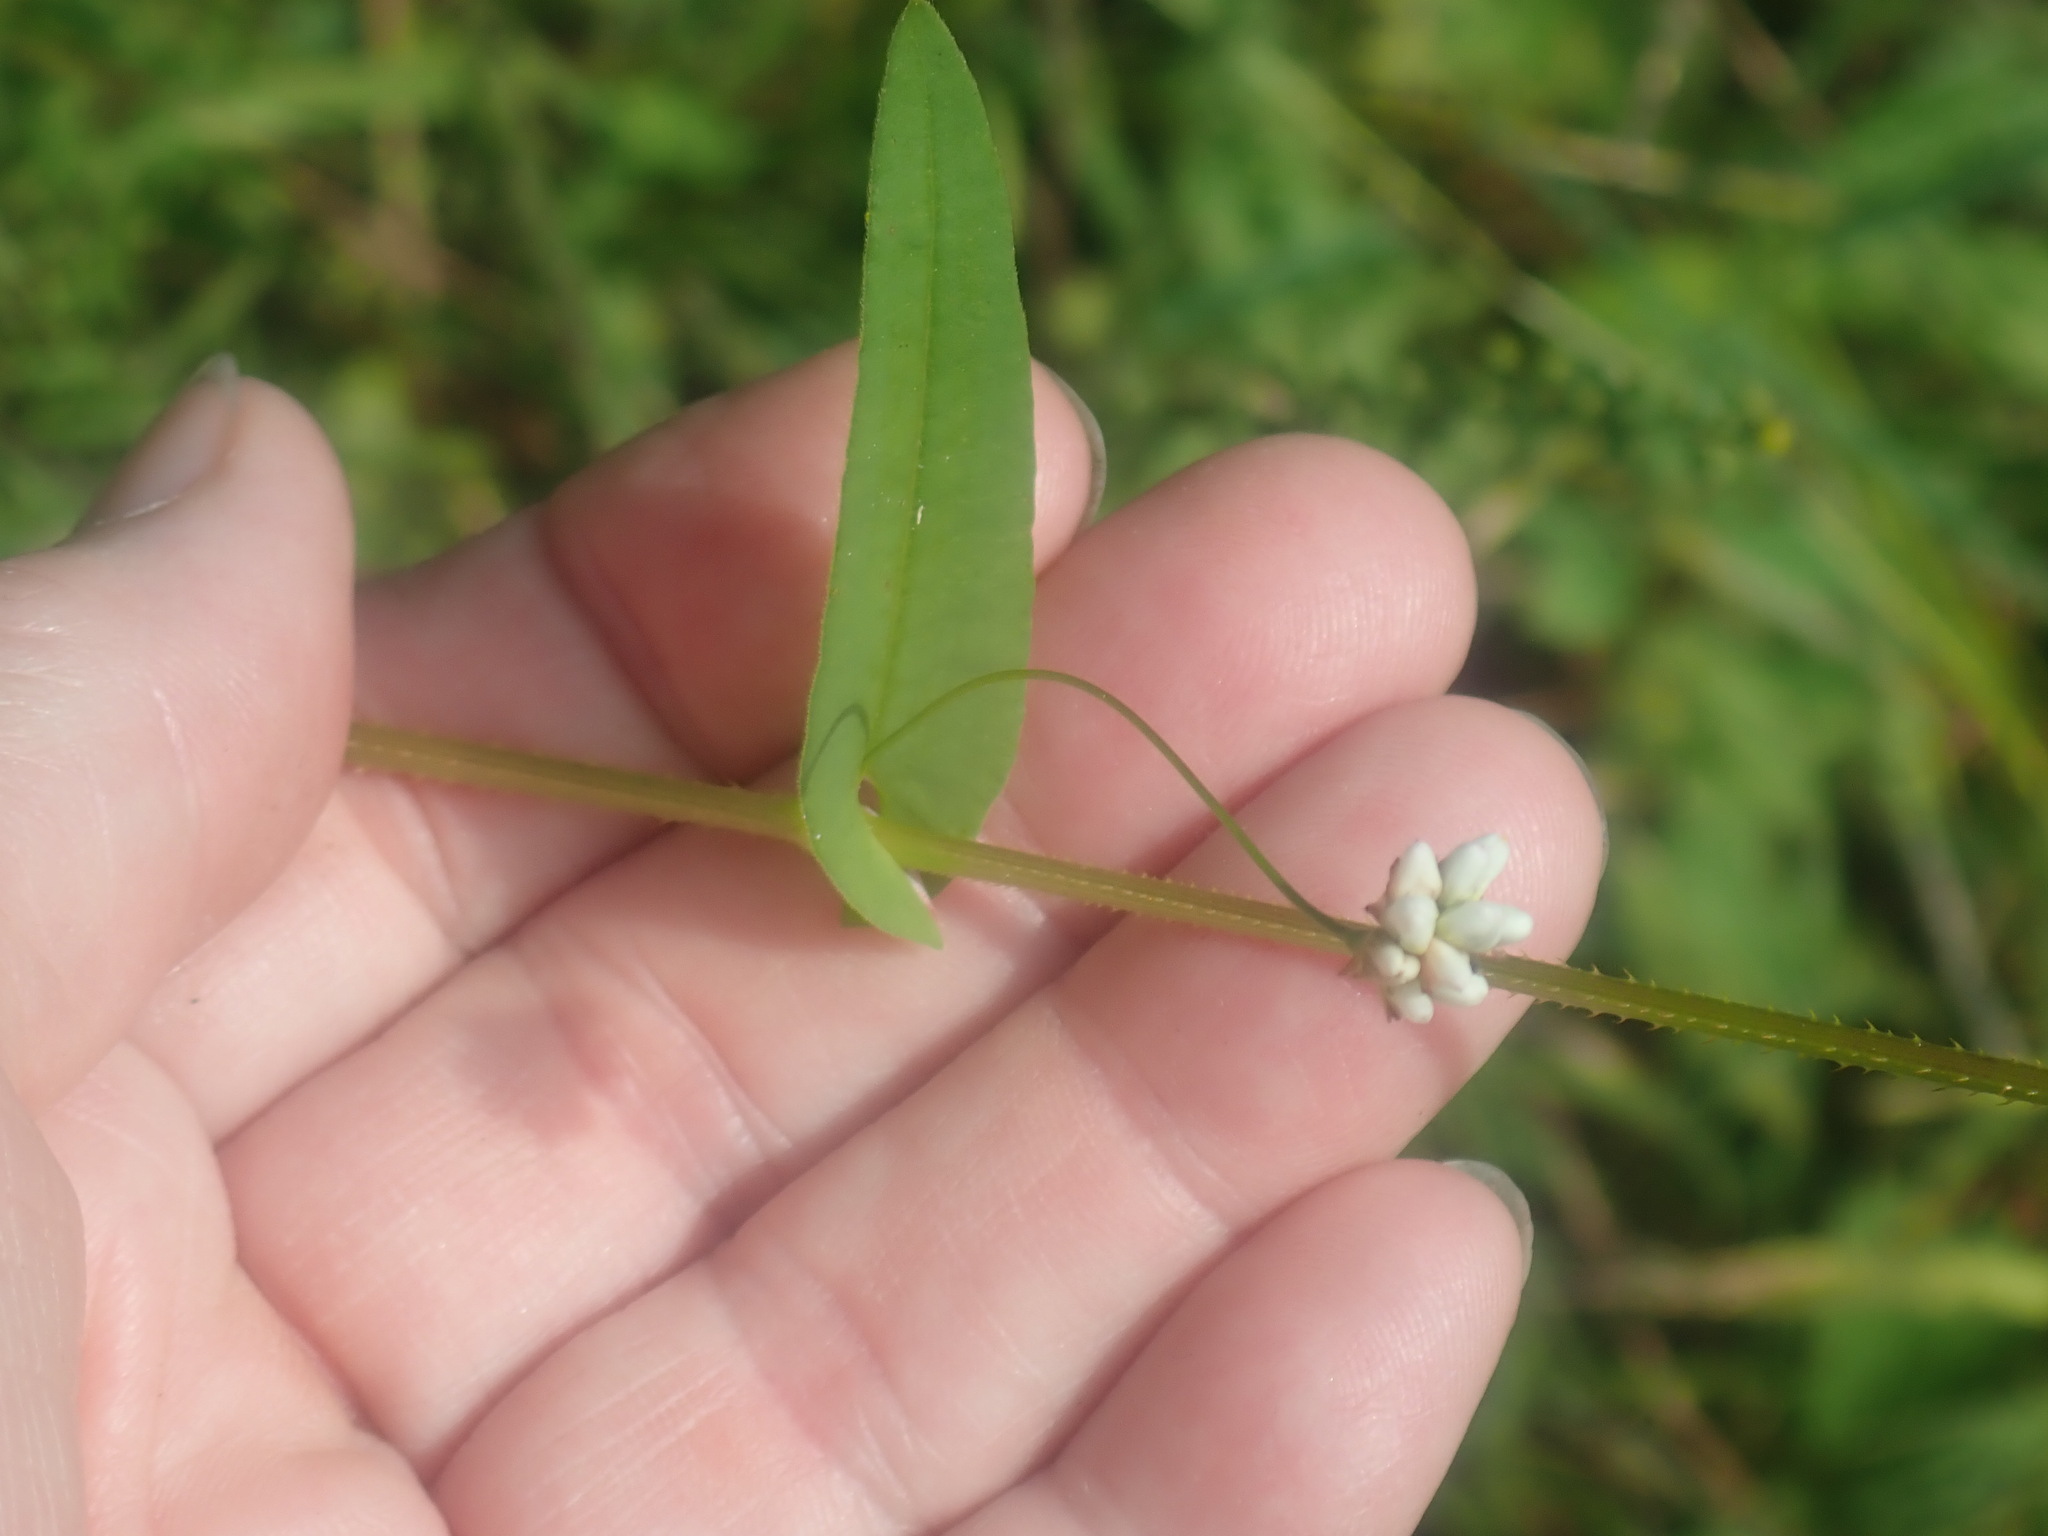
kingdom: Plantae
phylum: Tracheophyta
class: Magnoliopsida
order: Caryophyllales
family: Polygonaceae
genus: Persicaria
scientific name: Persicaria sagittata
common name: American tearthumb
